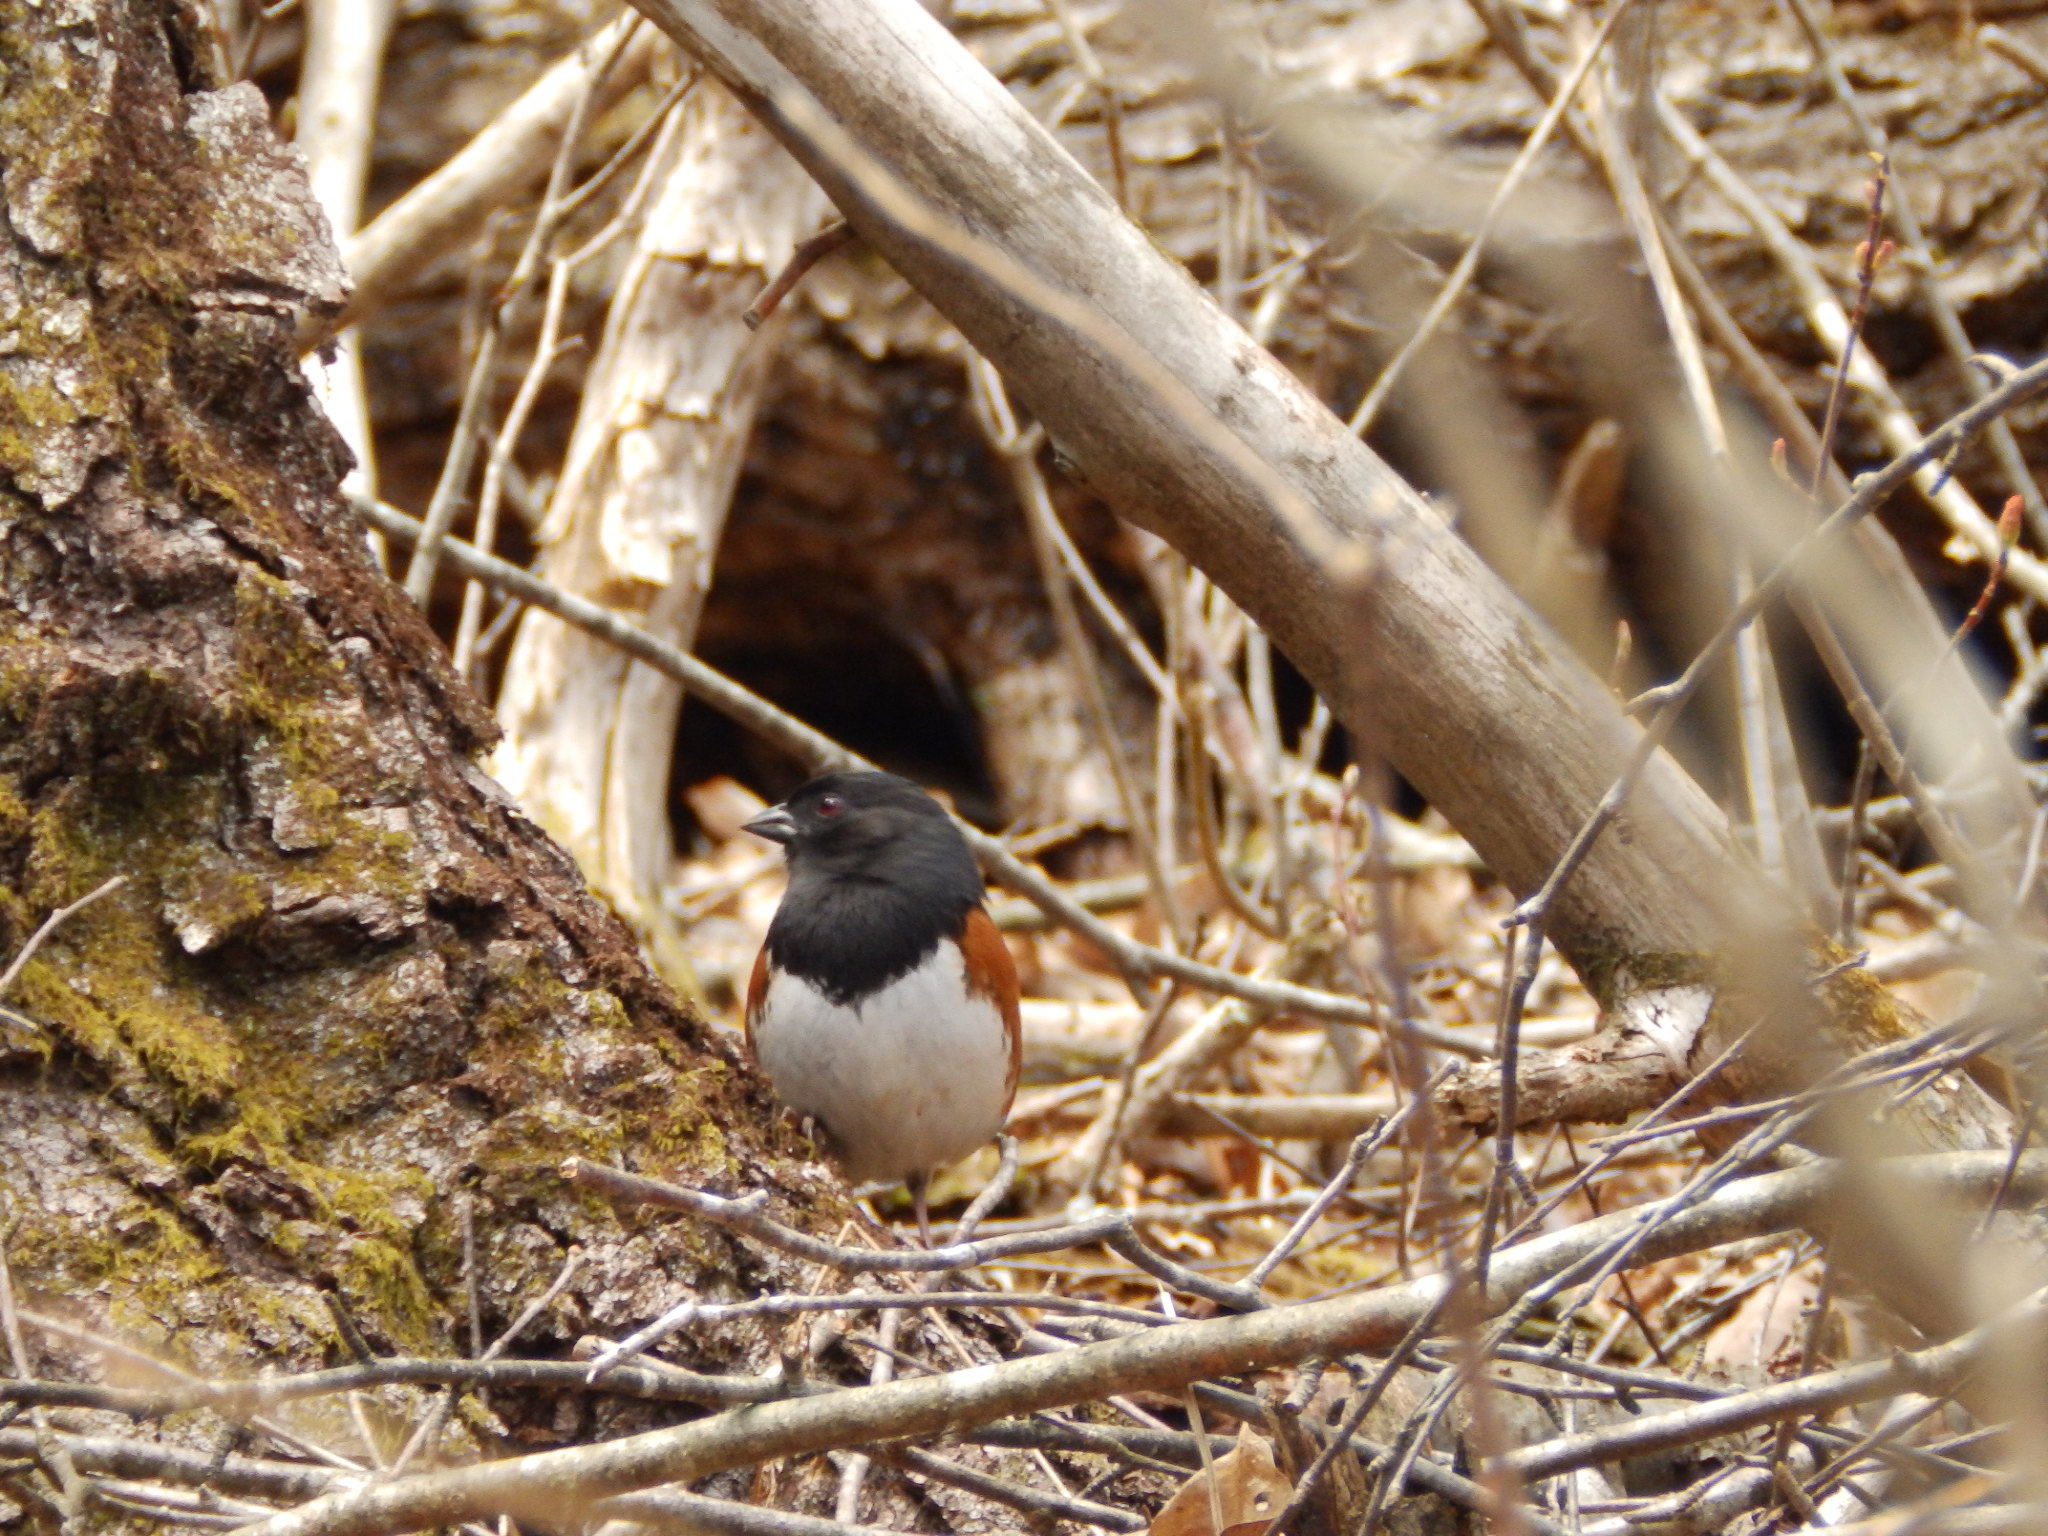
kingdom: Animalia
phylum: Chordata
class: Aves
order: Passeriformes
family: Passerellidae
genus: Pipilo
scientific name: Pipilo erythrophthalmus
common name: Eastern towhee
